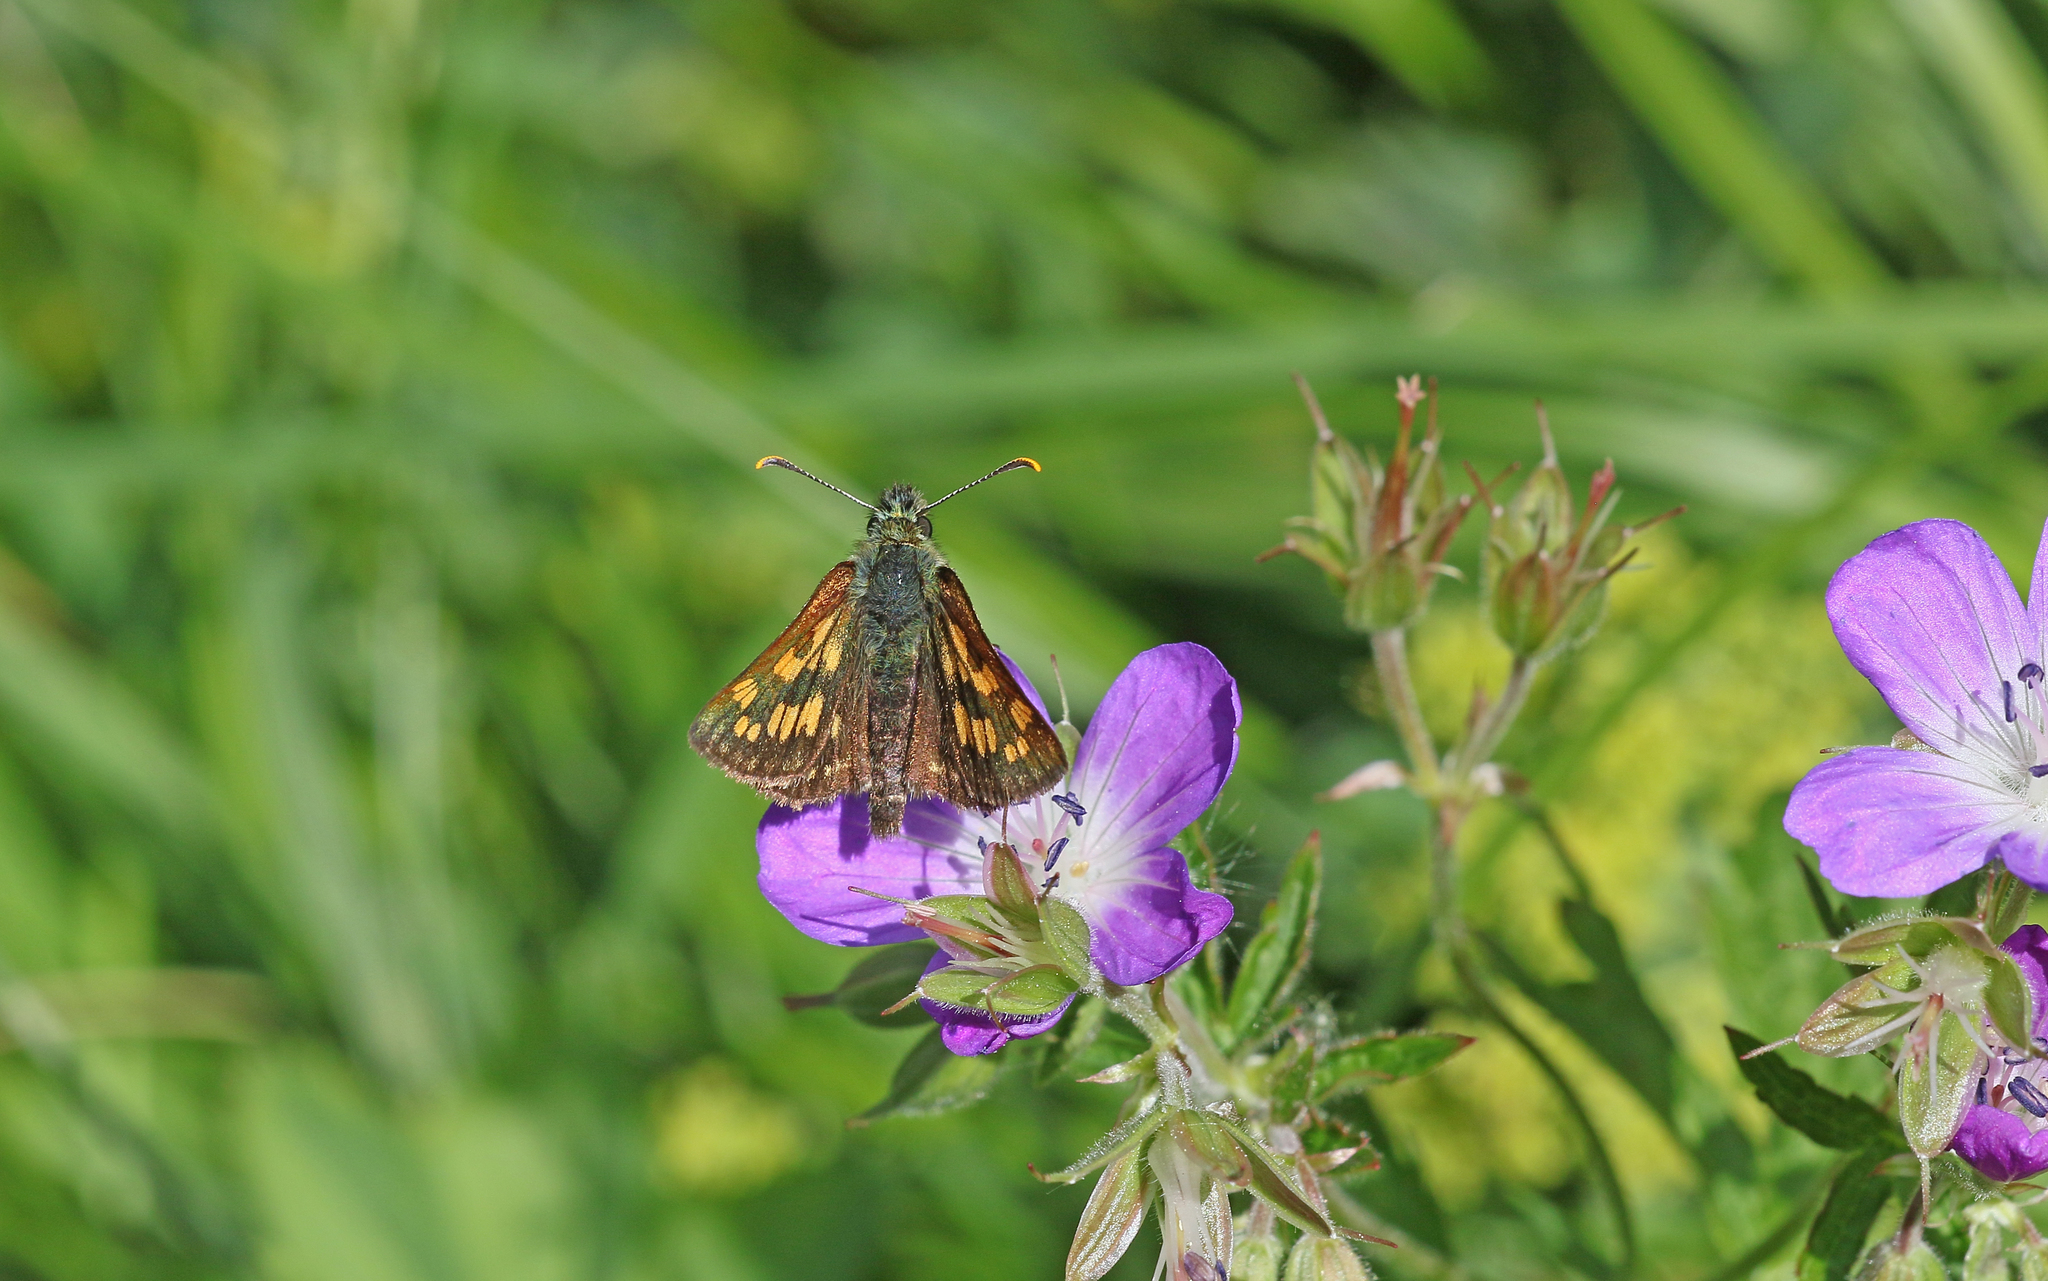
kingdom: Animalia
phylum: Arthropoda
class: Insecta
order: Lepidoptera
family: Hesperiidae
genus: Carterocephalus
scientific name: Carterocephalus palaemon
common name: Chequered skipper
